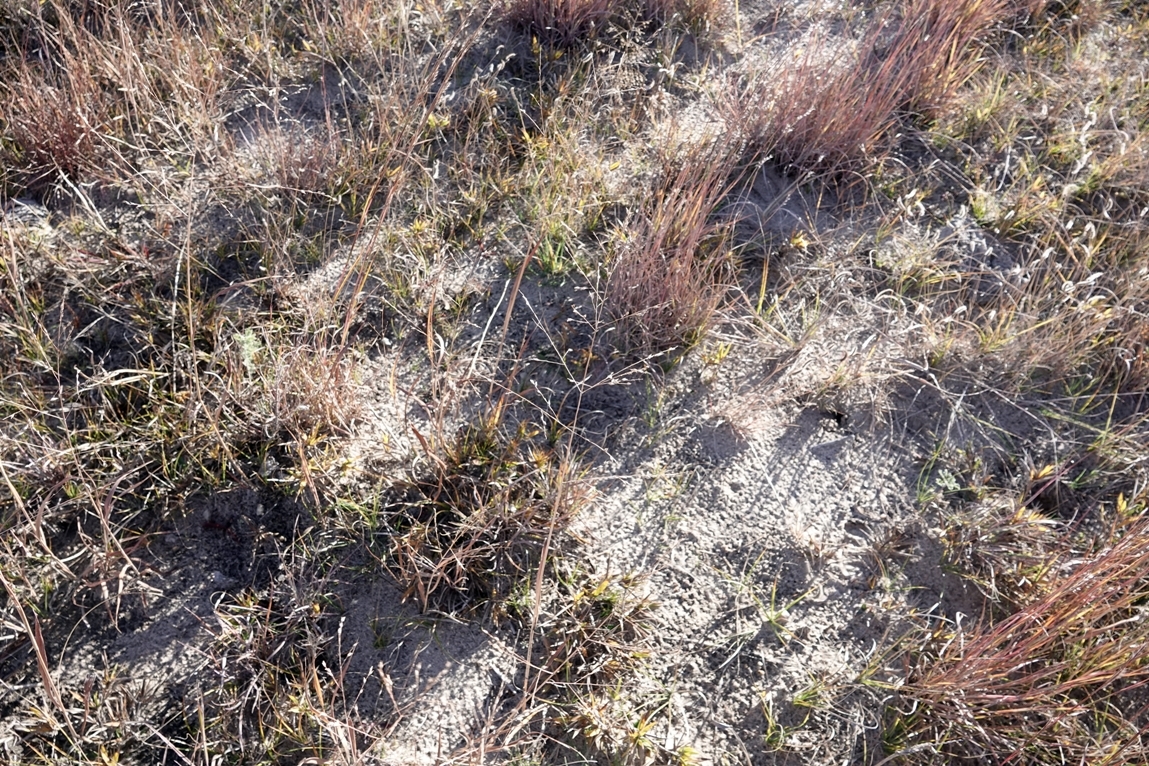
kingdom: Plantae
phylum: Tracheophyta
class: Liliopsida
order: Poales
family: Poaceae
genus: Panicum
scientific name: Panicum virgatum
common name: Switchgrass
